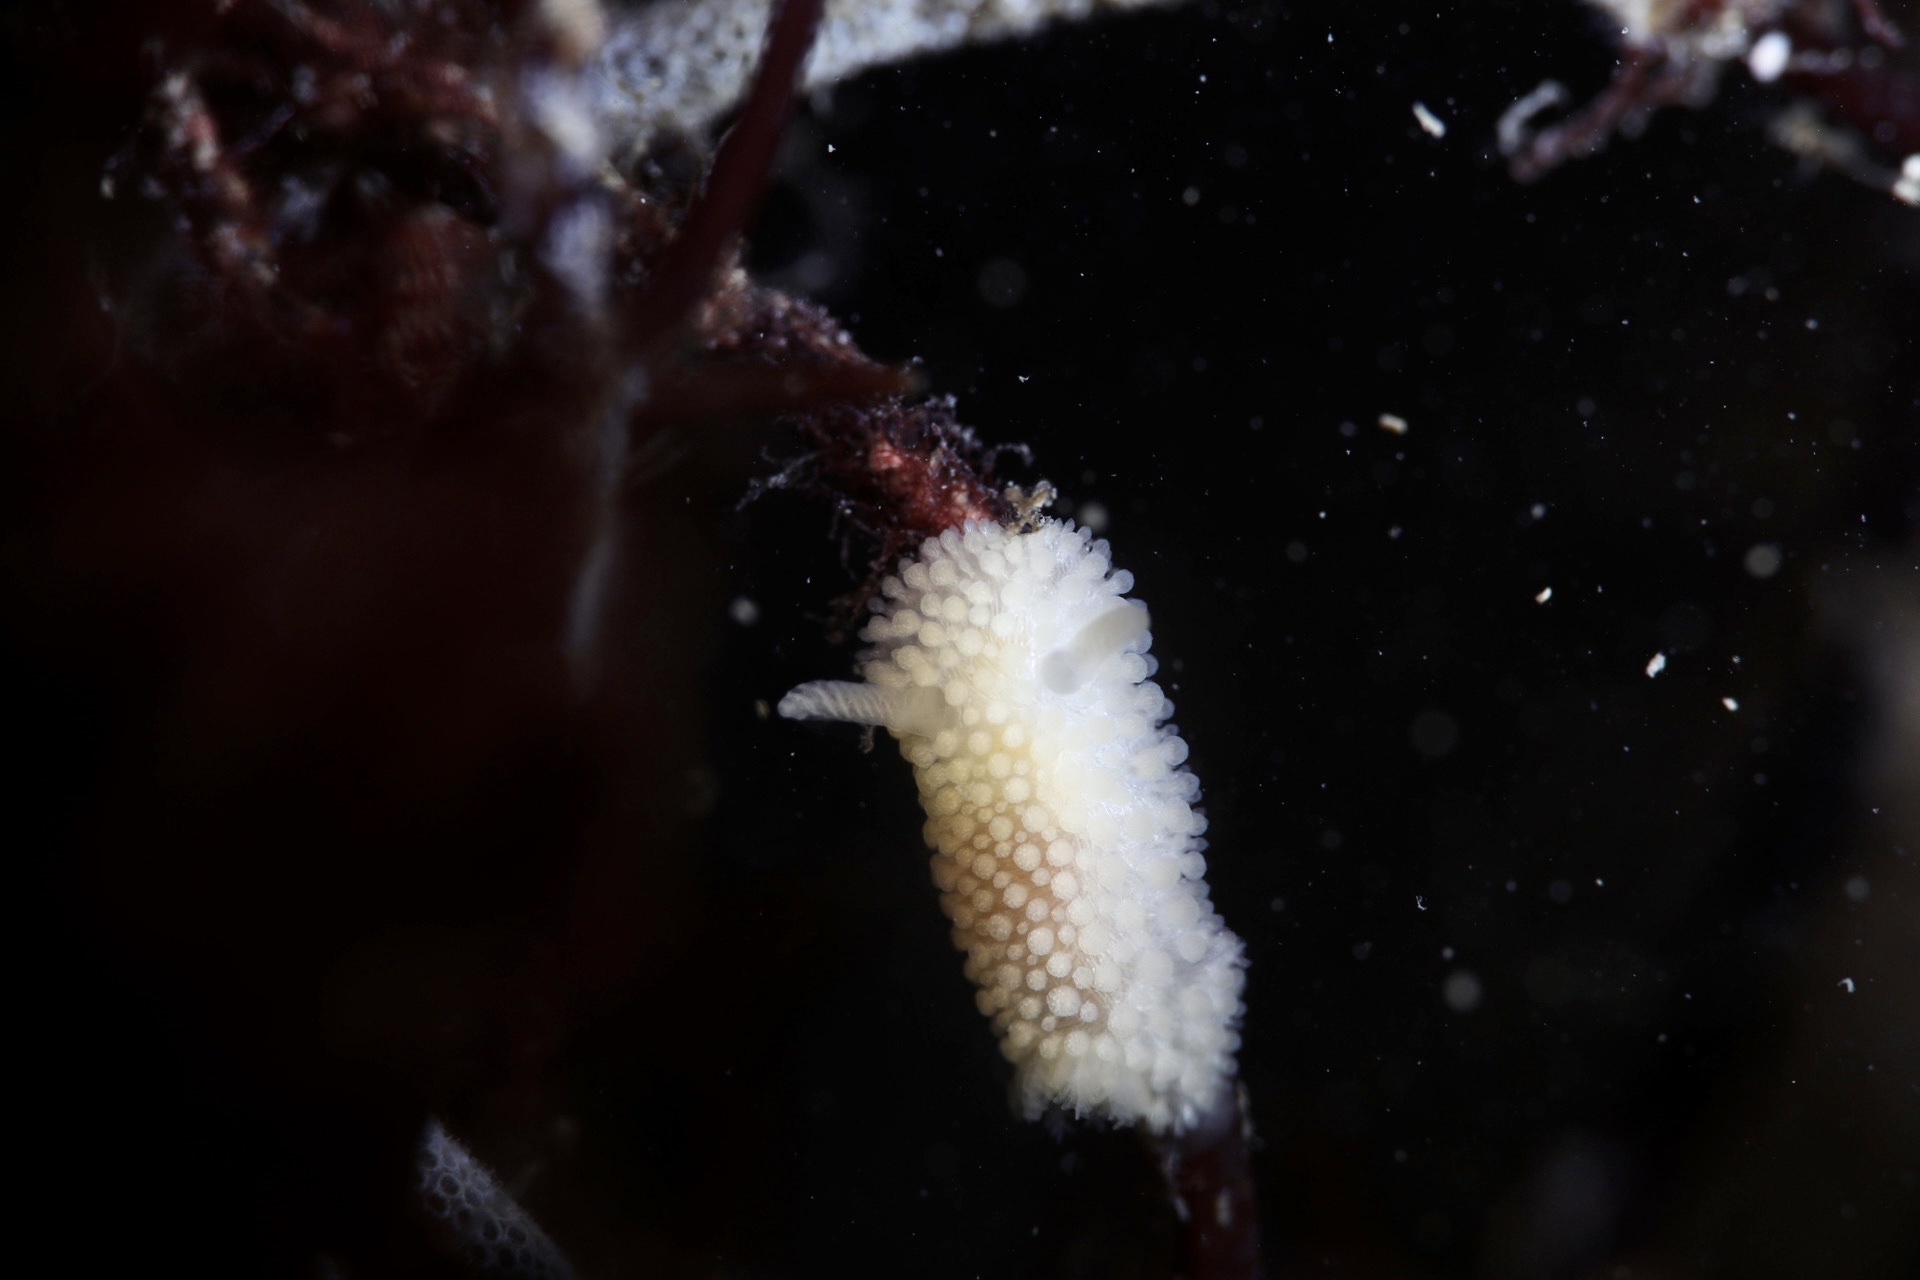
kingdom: Animalia
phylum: Mollusca
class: Gastropoda
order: Nudibranchia
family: Onchidorididae
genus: Onchidoris
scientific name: Onchidoris muricata
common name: Rough doris
